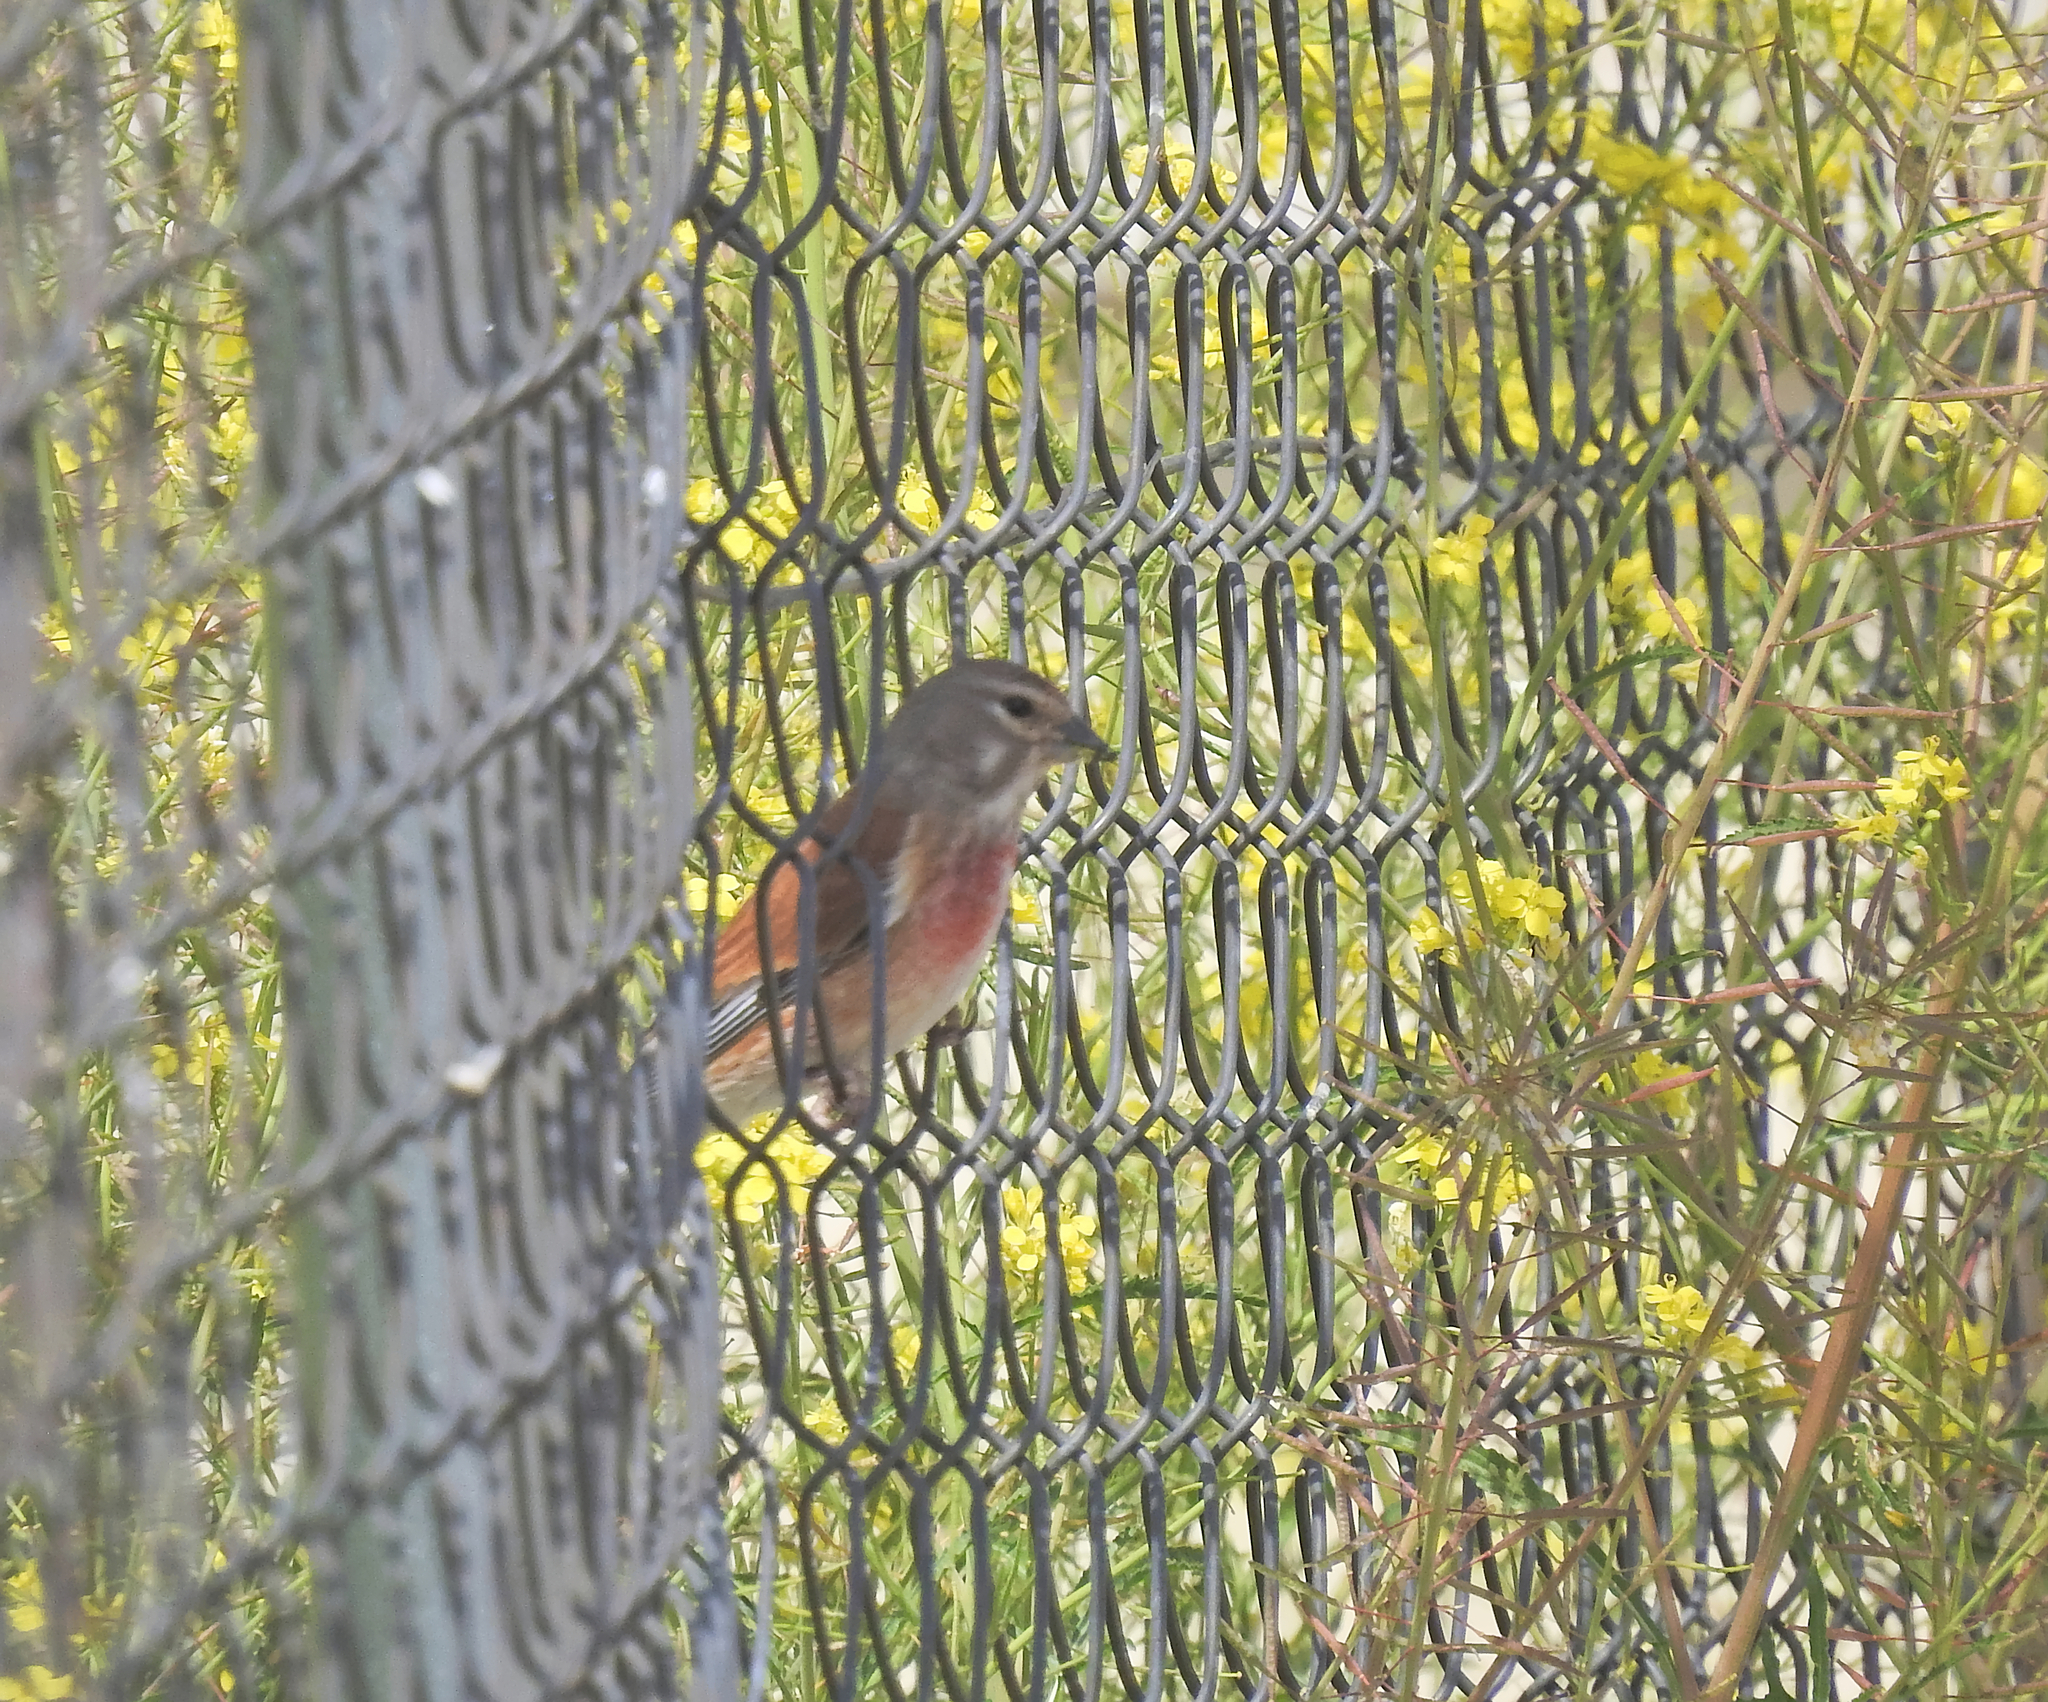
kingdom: Animalia
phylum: Chordata
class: Aves
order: Passeriformes
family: Fringillidae
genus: Linaria
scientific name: Linaria cannabina
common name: Common linnet
